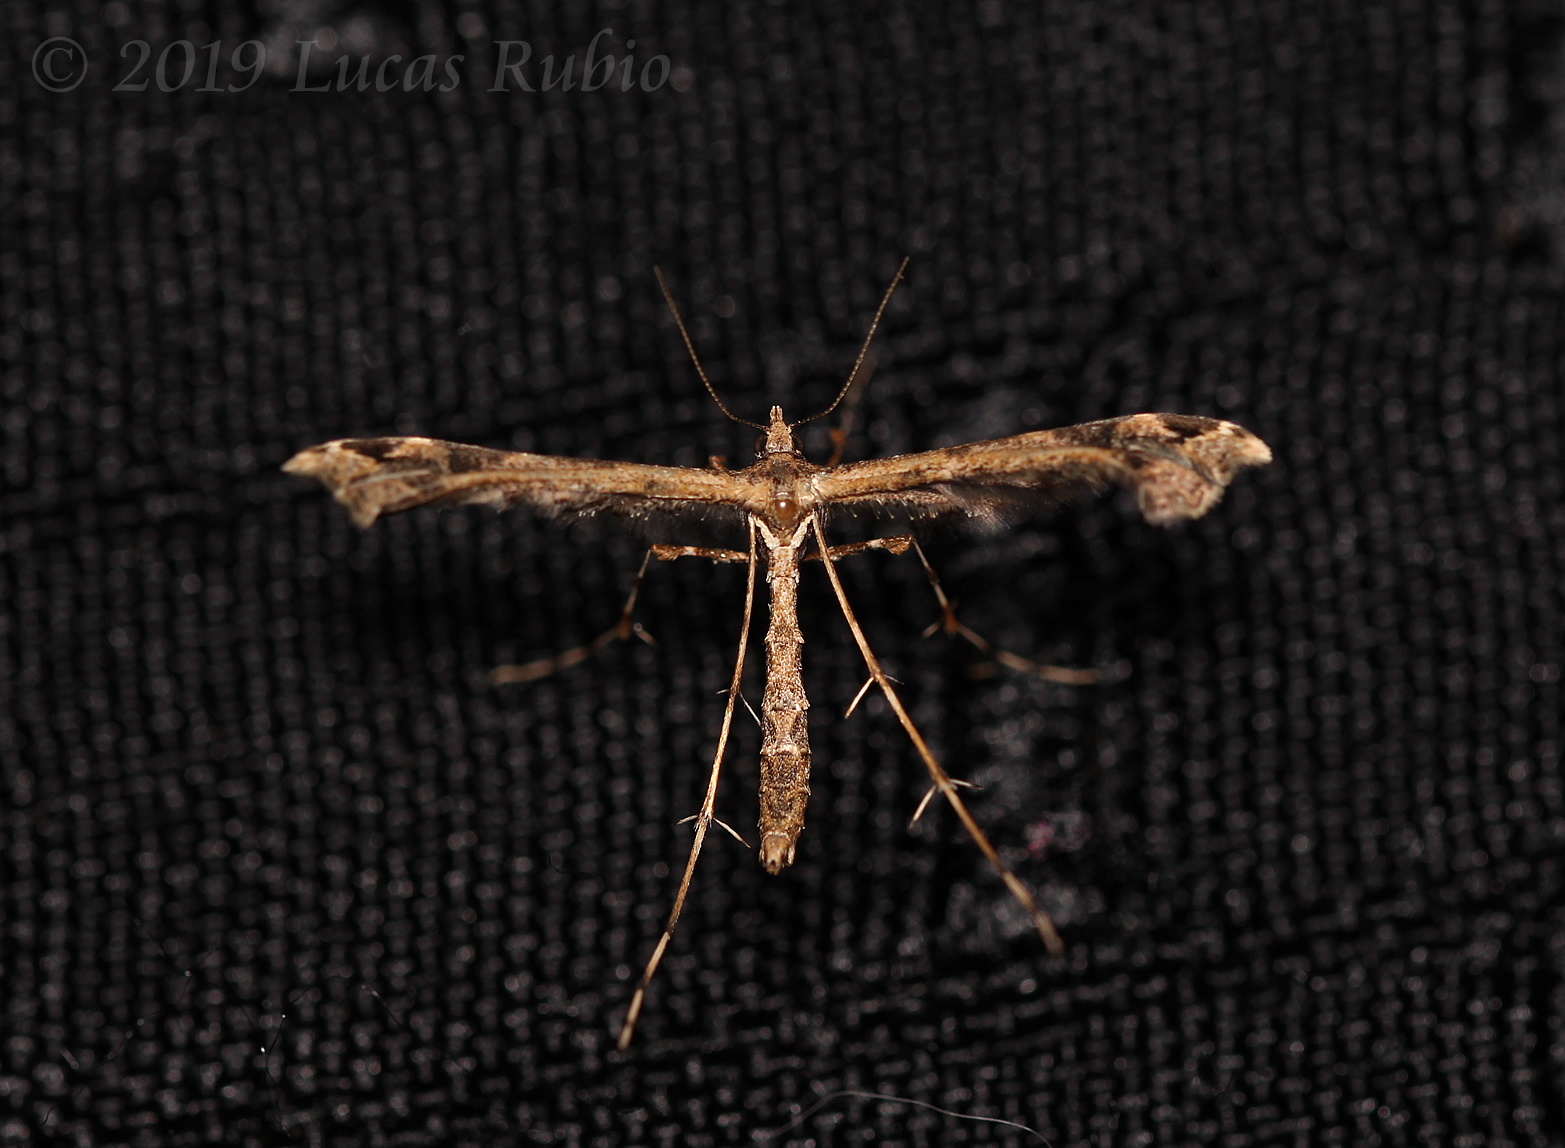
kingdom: Animalia
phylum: Arthropoda
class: Insecta
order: Lepidoptera
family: Pterophoridae
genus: Stenoptilodes
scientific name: Stenoptilodes sematodactyla
